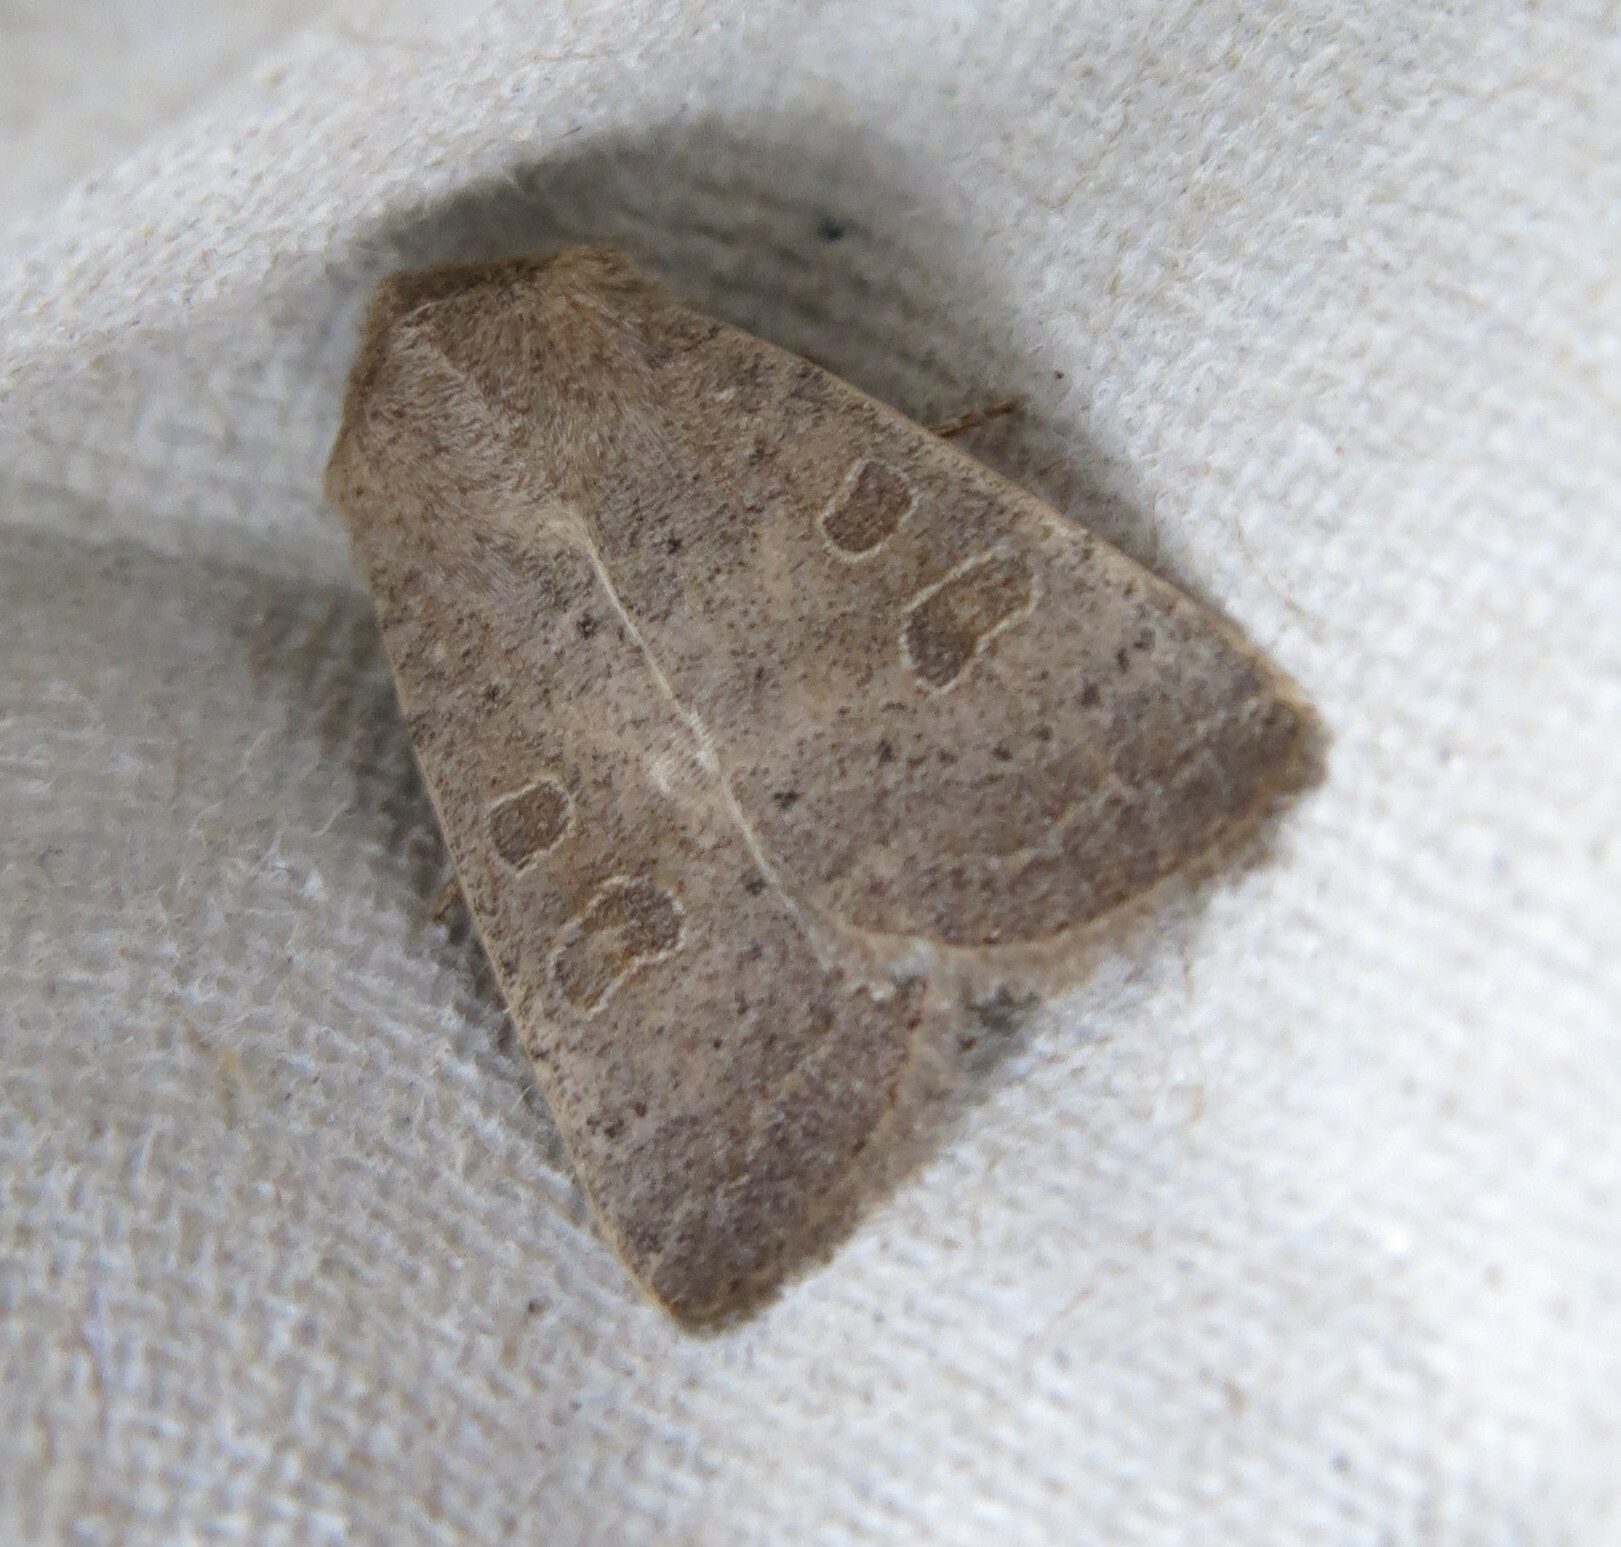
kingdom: Animalia
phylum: Arthropoda
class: Insecta
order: Lepidoptera
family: Noctuidae
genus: Hoplodrina
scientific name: Hoplodrina ambigua
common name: Vine's rustic
